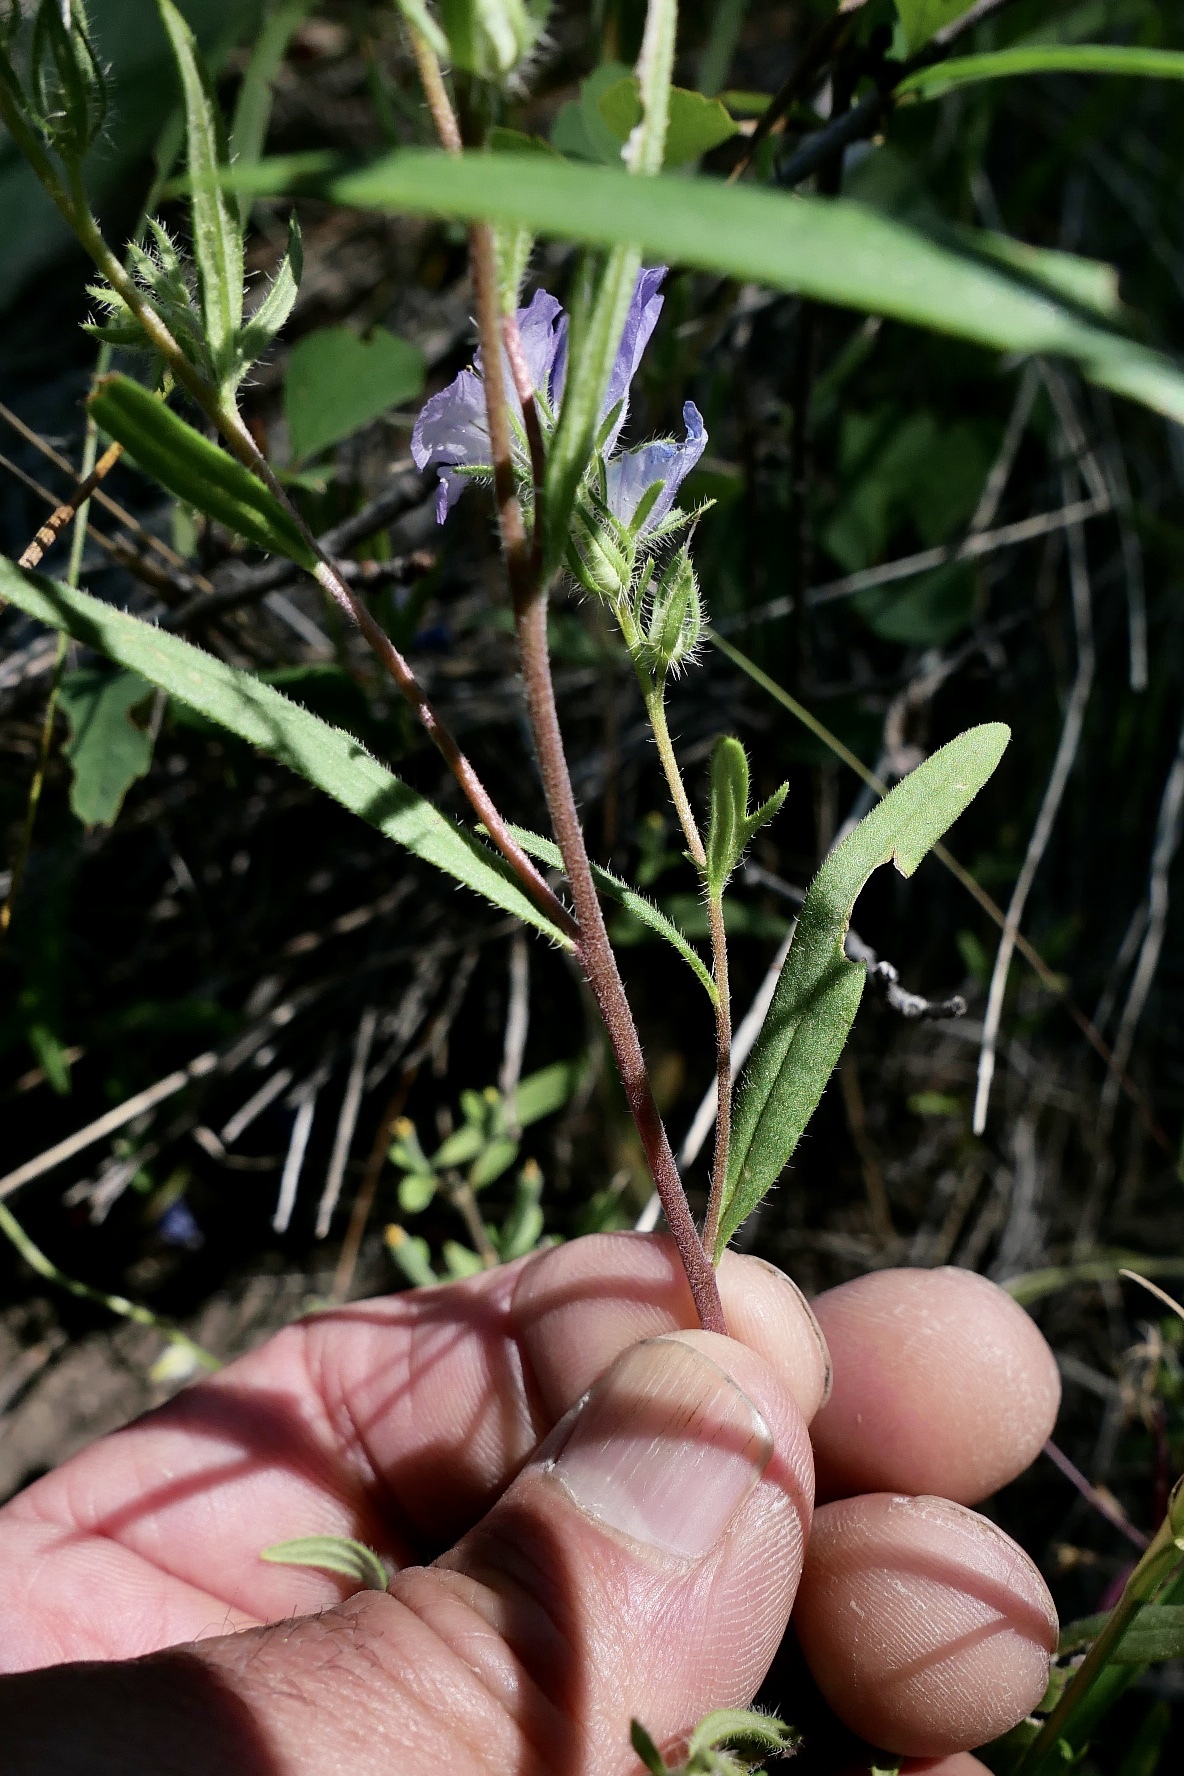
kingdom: Plantae
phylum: Tracheophyta
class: Magnoliopsida
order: Boraginales
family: Hydrophyllaceae
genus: Phacelia
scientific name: Phacelia linearis
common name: Linear-leaved phacelia
